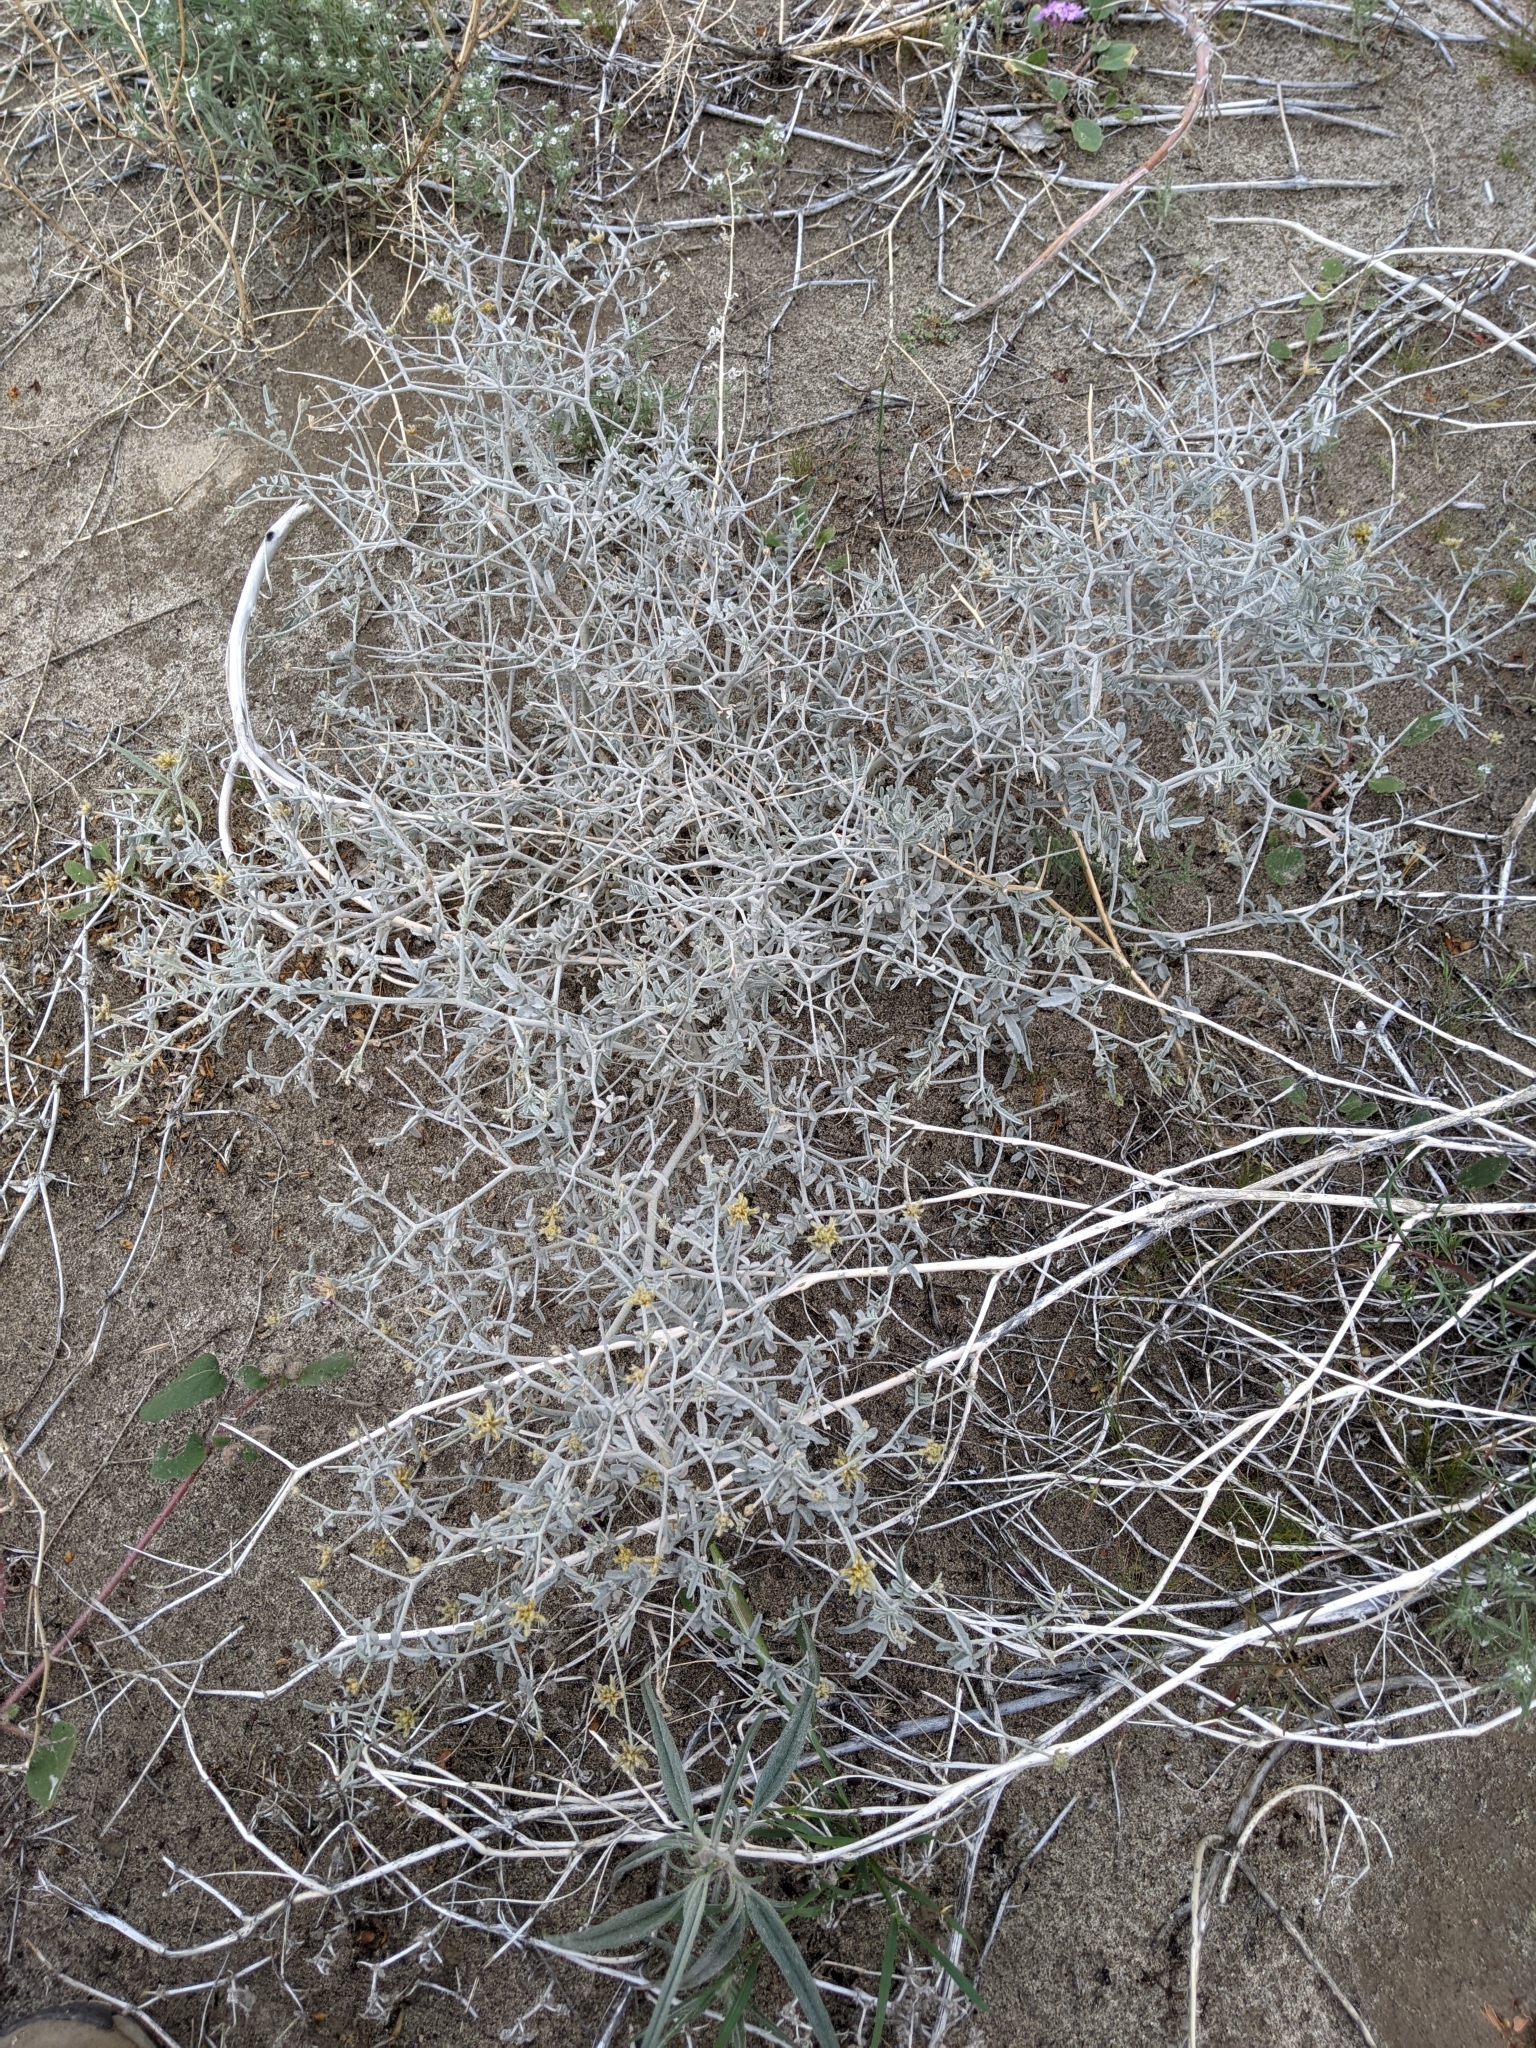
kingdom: Plantae
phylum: Tracheophyta
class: Magnoliopsida
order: Fabales
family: Fabaceae
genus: Psorothamnus
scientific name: Psorothamnus emoryi
